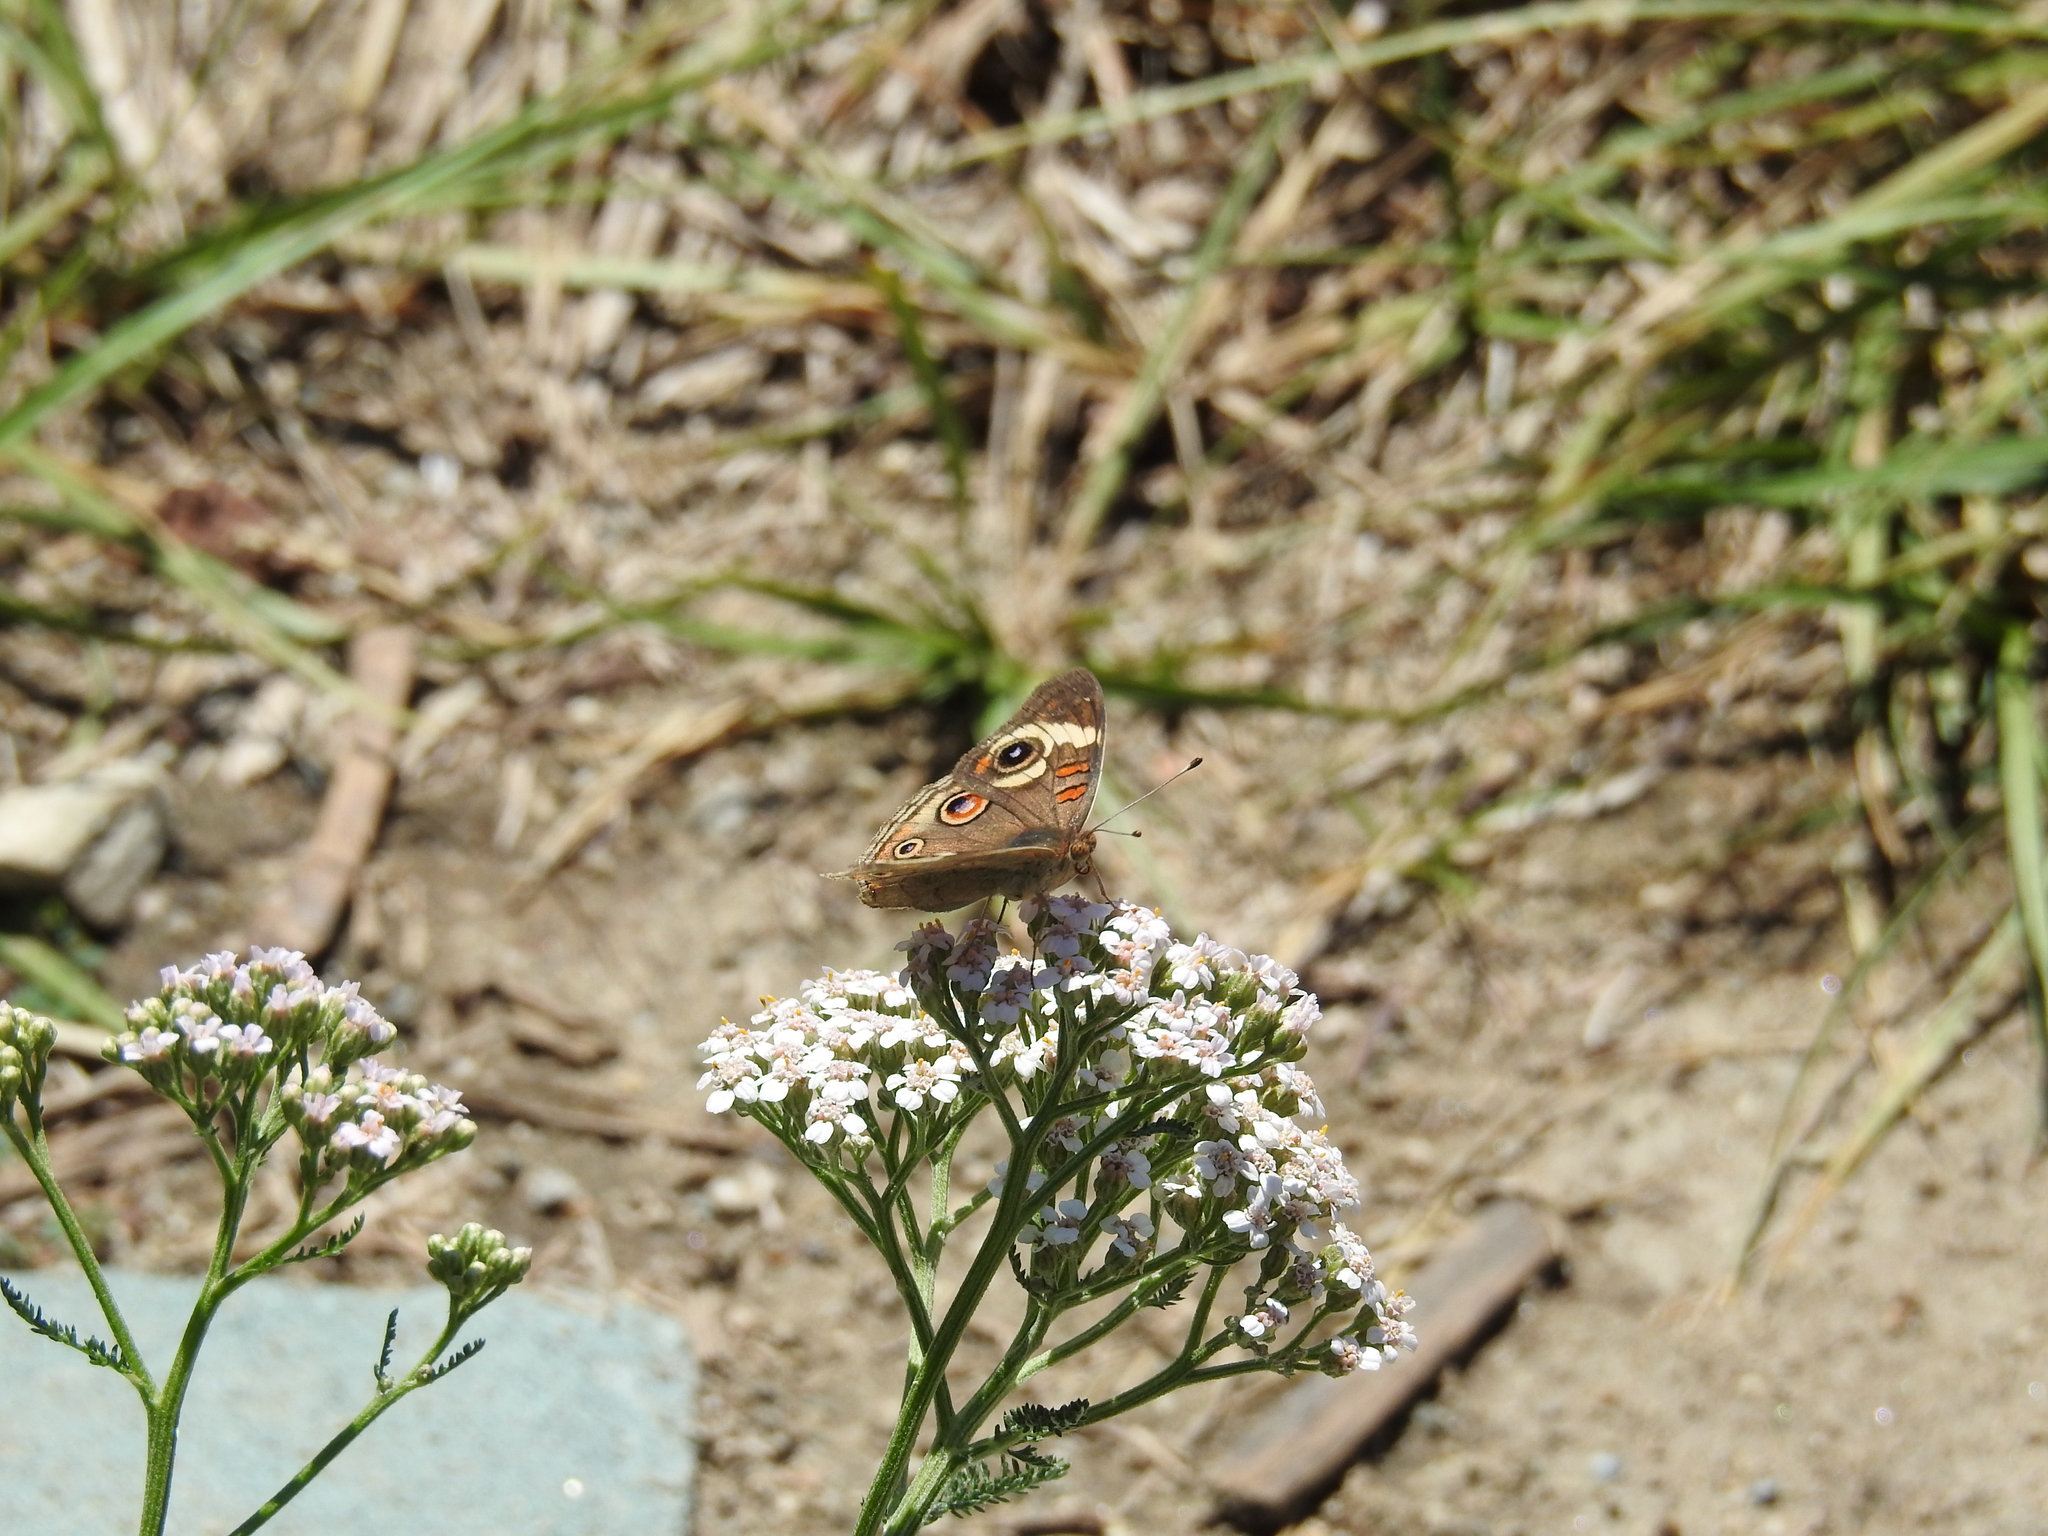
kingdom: Animalia
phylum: Arthropoda
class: Insecta
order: Lepidoptera
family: Nymphalidae
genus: Junonia
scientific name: Junonia grisea
